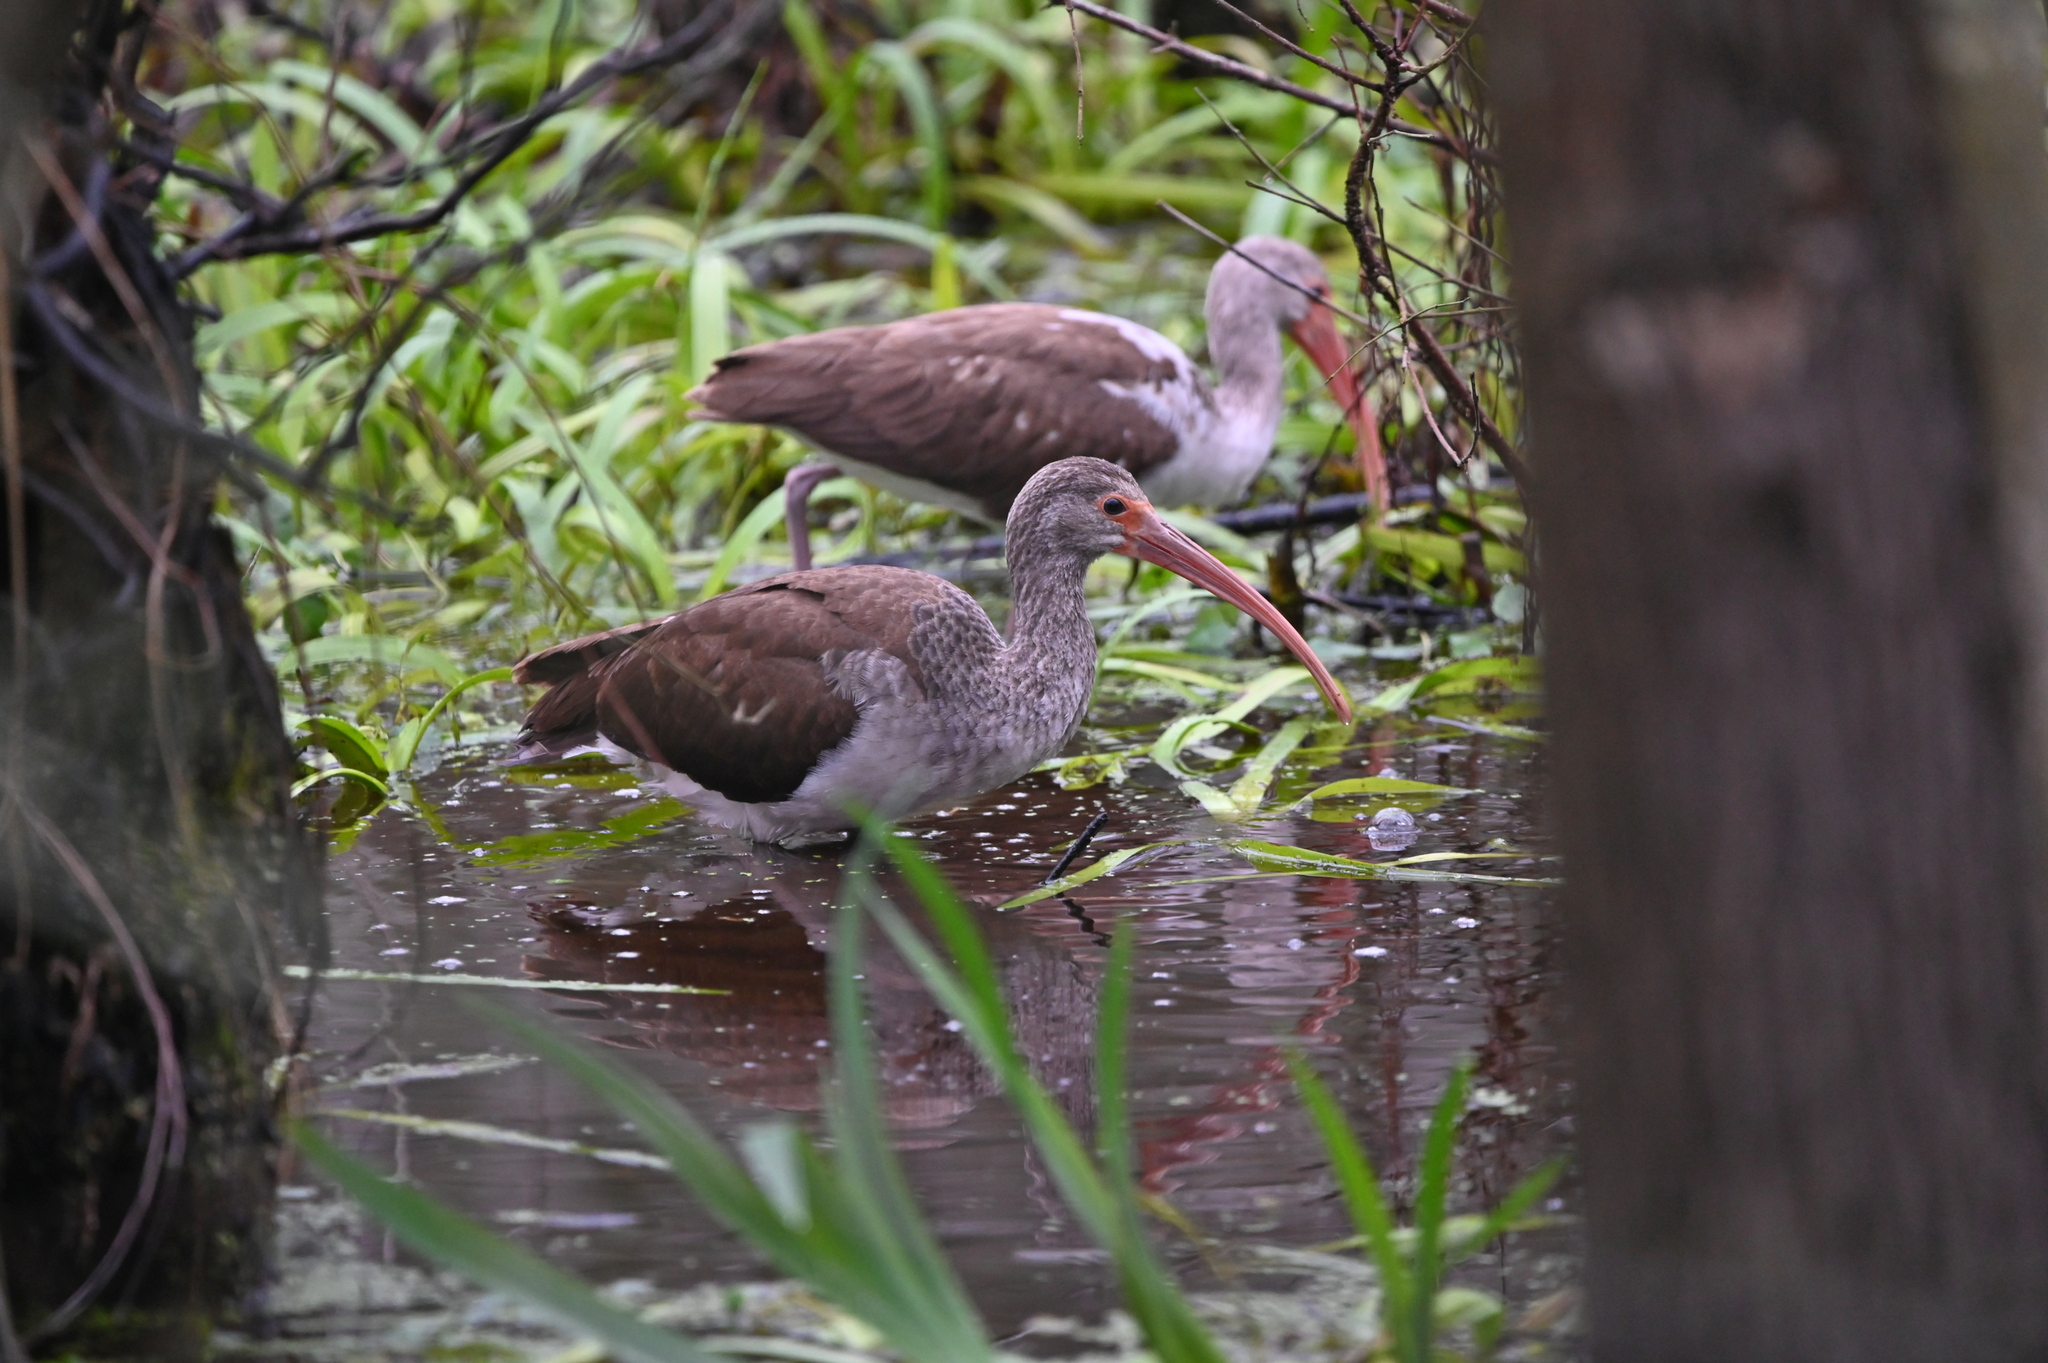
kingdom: Animalia
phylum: Chordata
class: Aves
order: Pelecaniformes
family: Threskiornithidae
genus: Eudocimus
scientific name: Eudocimus albus
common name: White ibis
